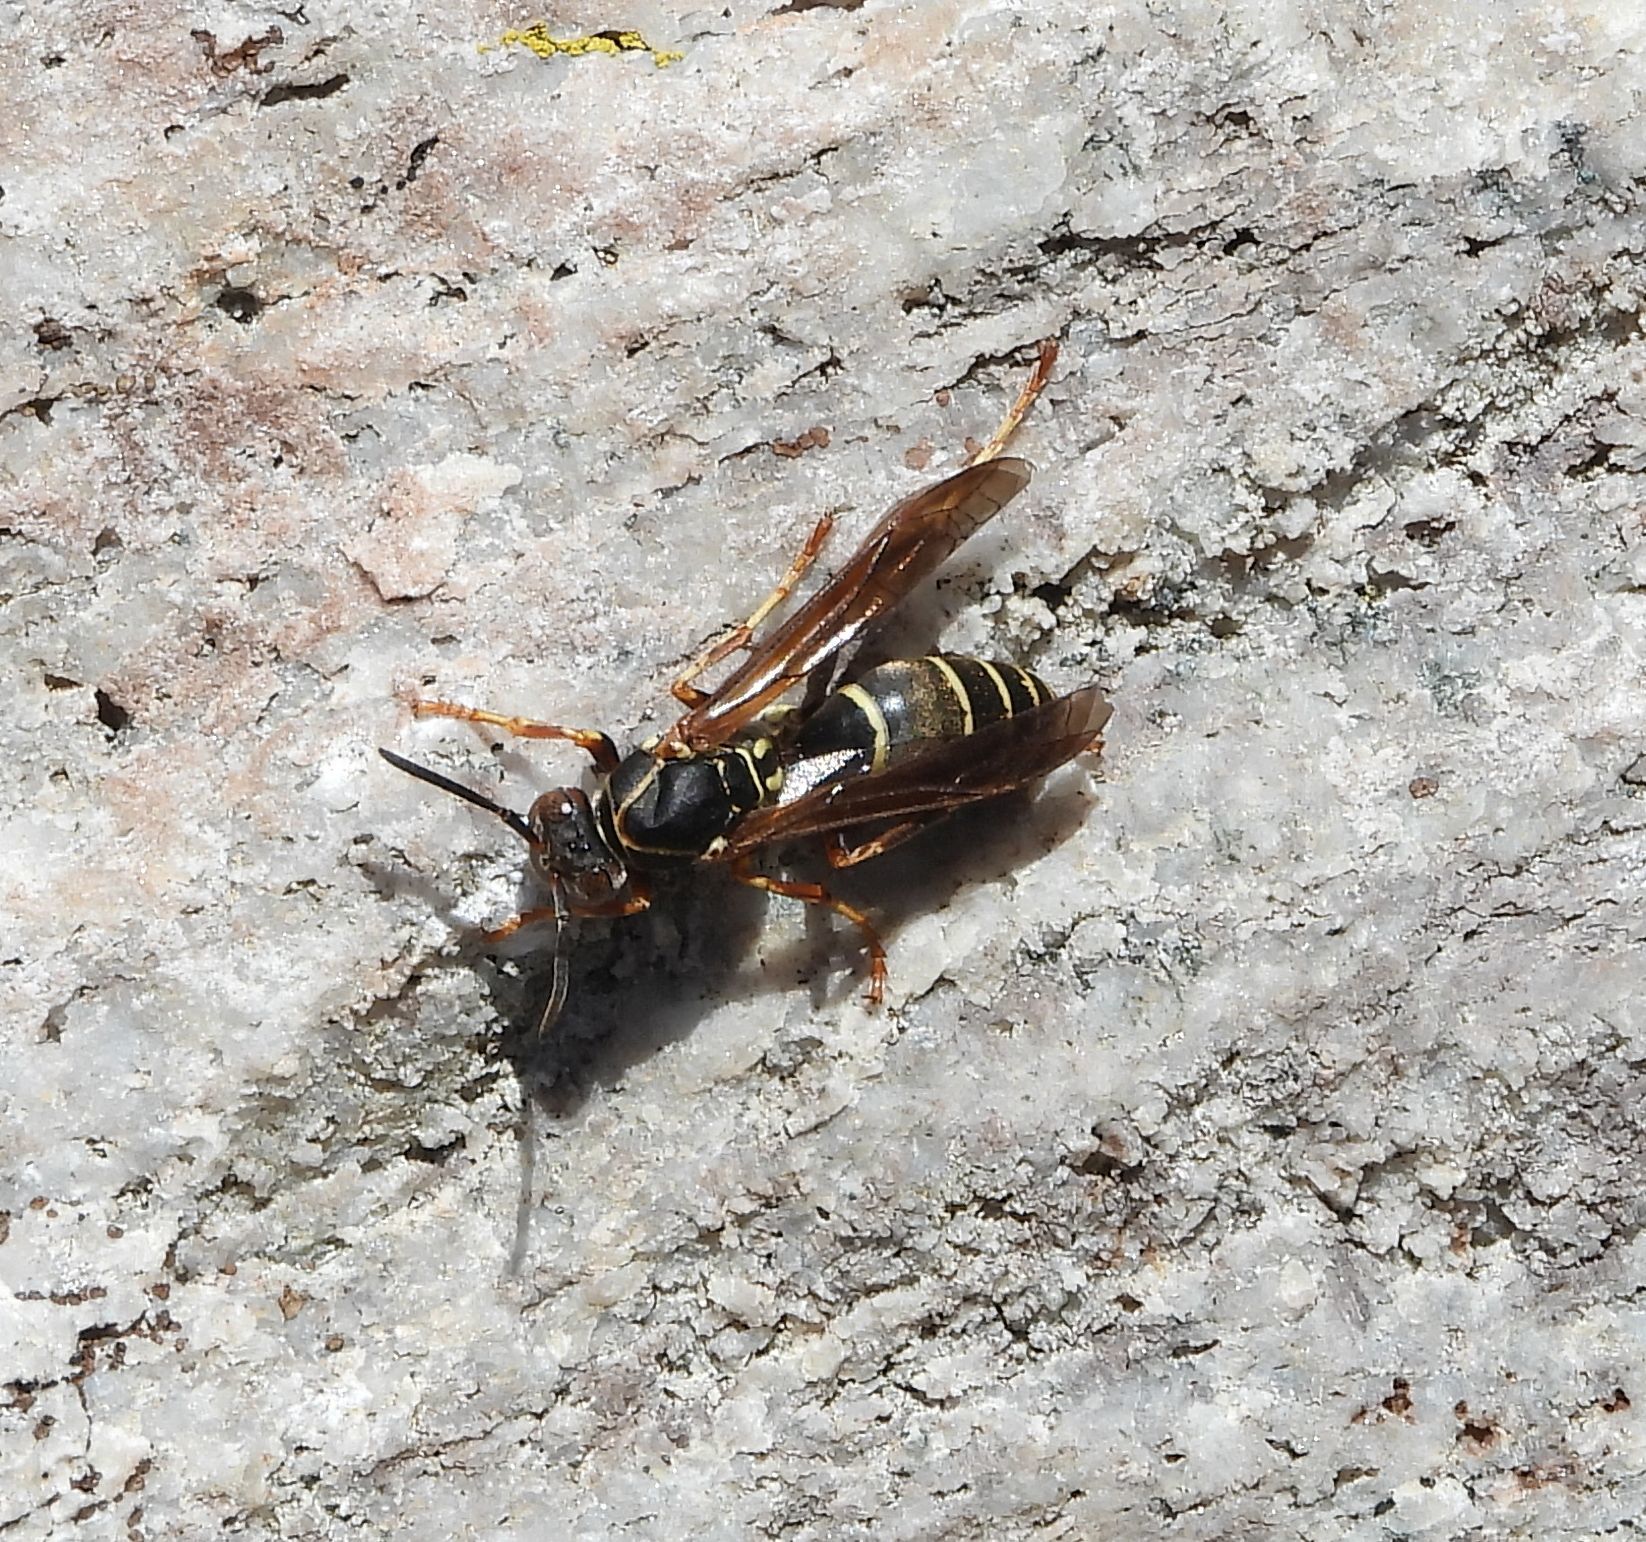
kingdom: Animalia
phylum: Arthropoda
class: Insecta
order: Hymenoptera
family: Eumenidae
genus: Polistes
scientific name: Polistes fuscatus
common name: Dark paper wasp
